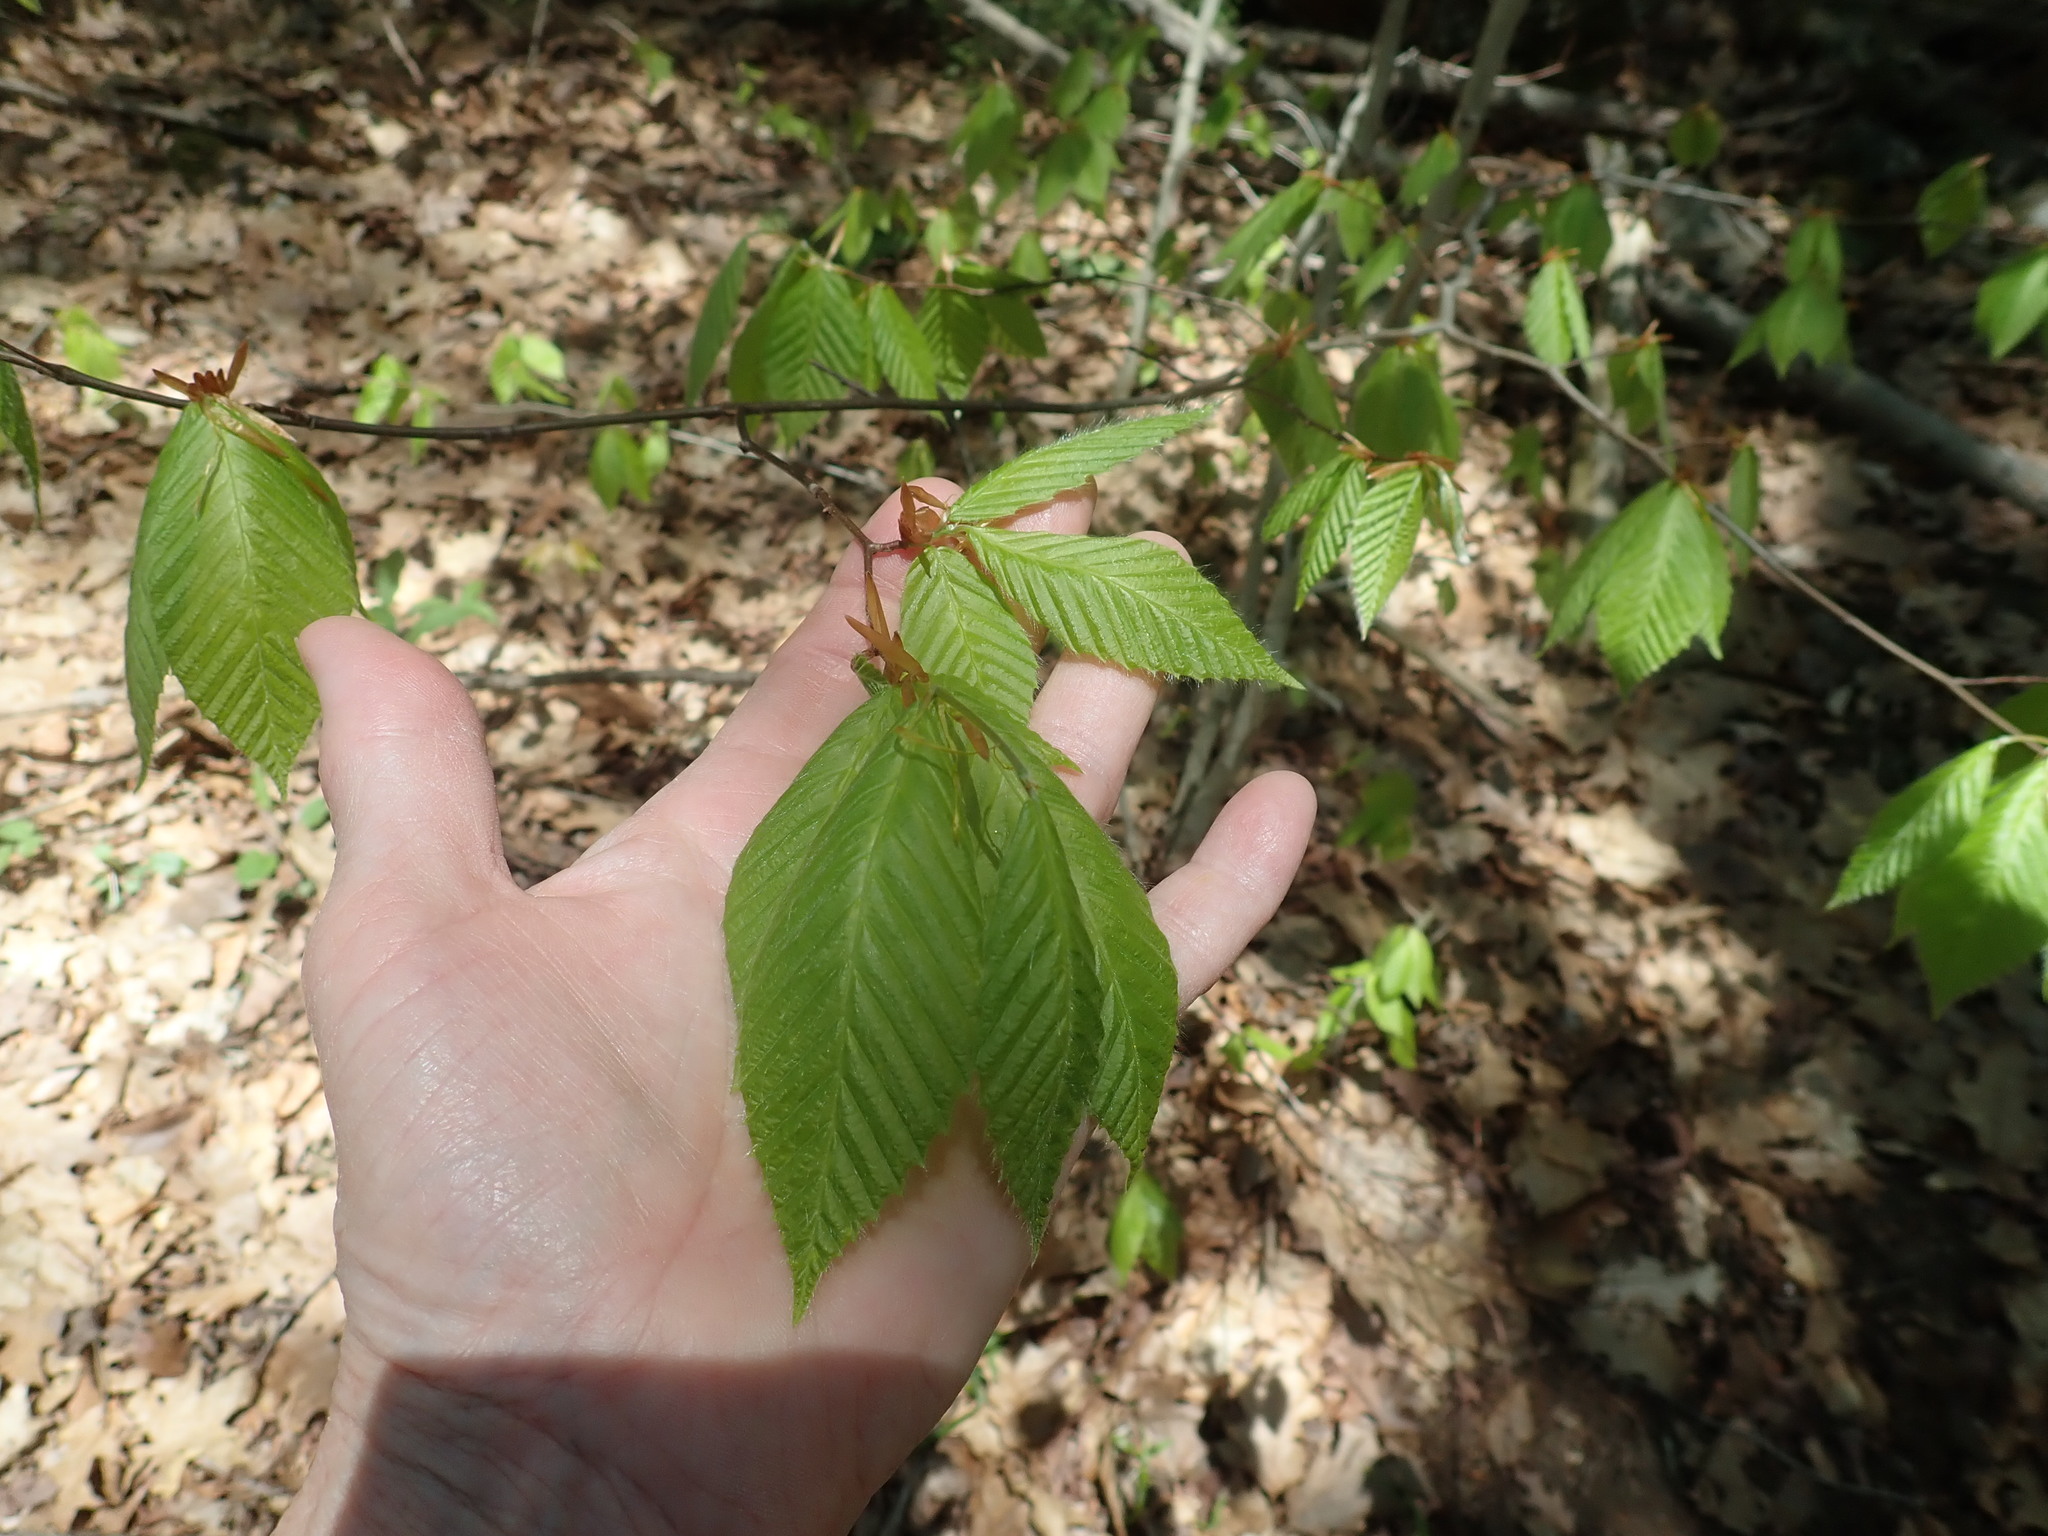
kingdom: Plantae
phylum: Tracheophyta
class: Magnoliopsida
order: Fagales
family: Fagaceae
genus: Fagus
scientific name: Fagus grandifolia
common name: American beech
